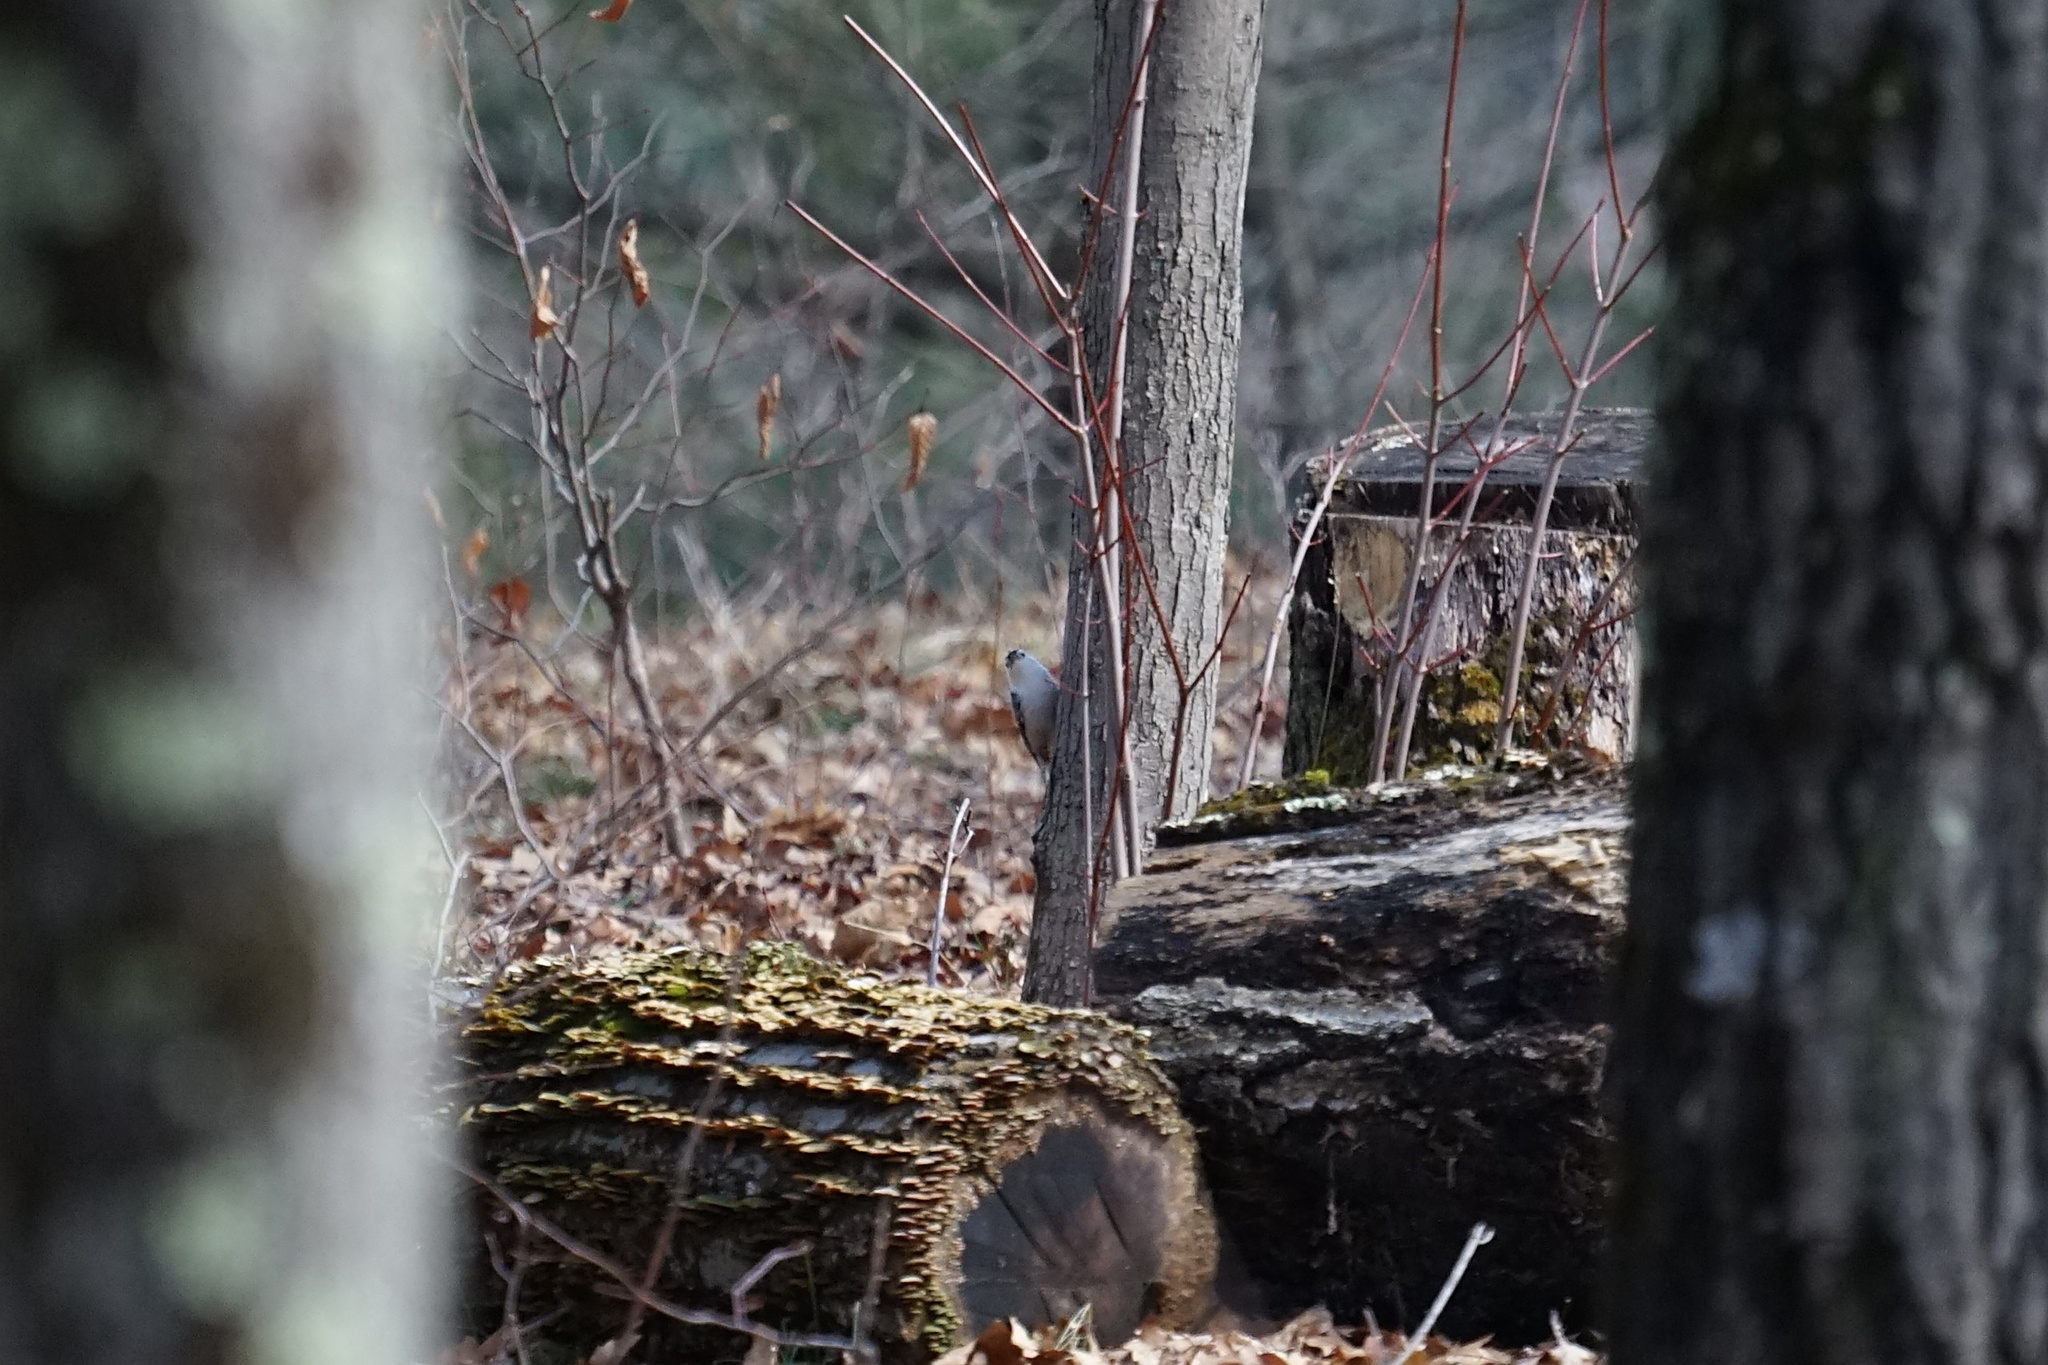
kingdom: Animalia
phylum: Chordata
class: Aves
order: Passeriformes
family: Sittidae
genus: Sitta
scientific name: Sitta carolinensis
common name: White-breasted nuthatch
